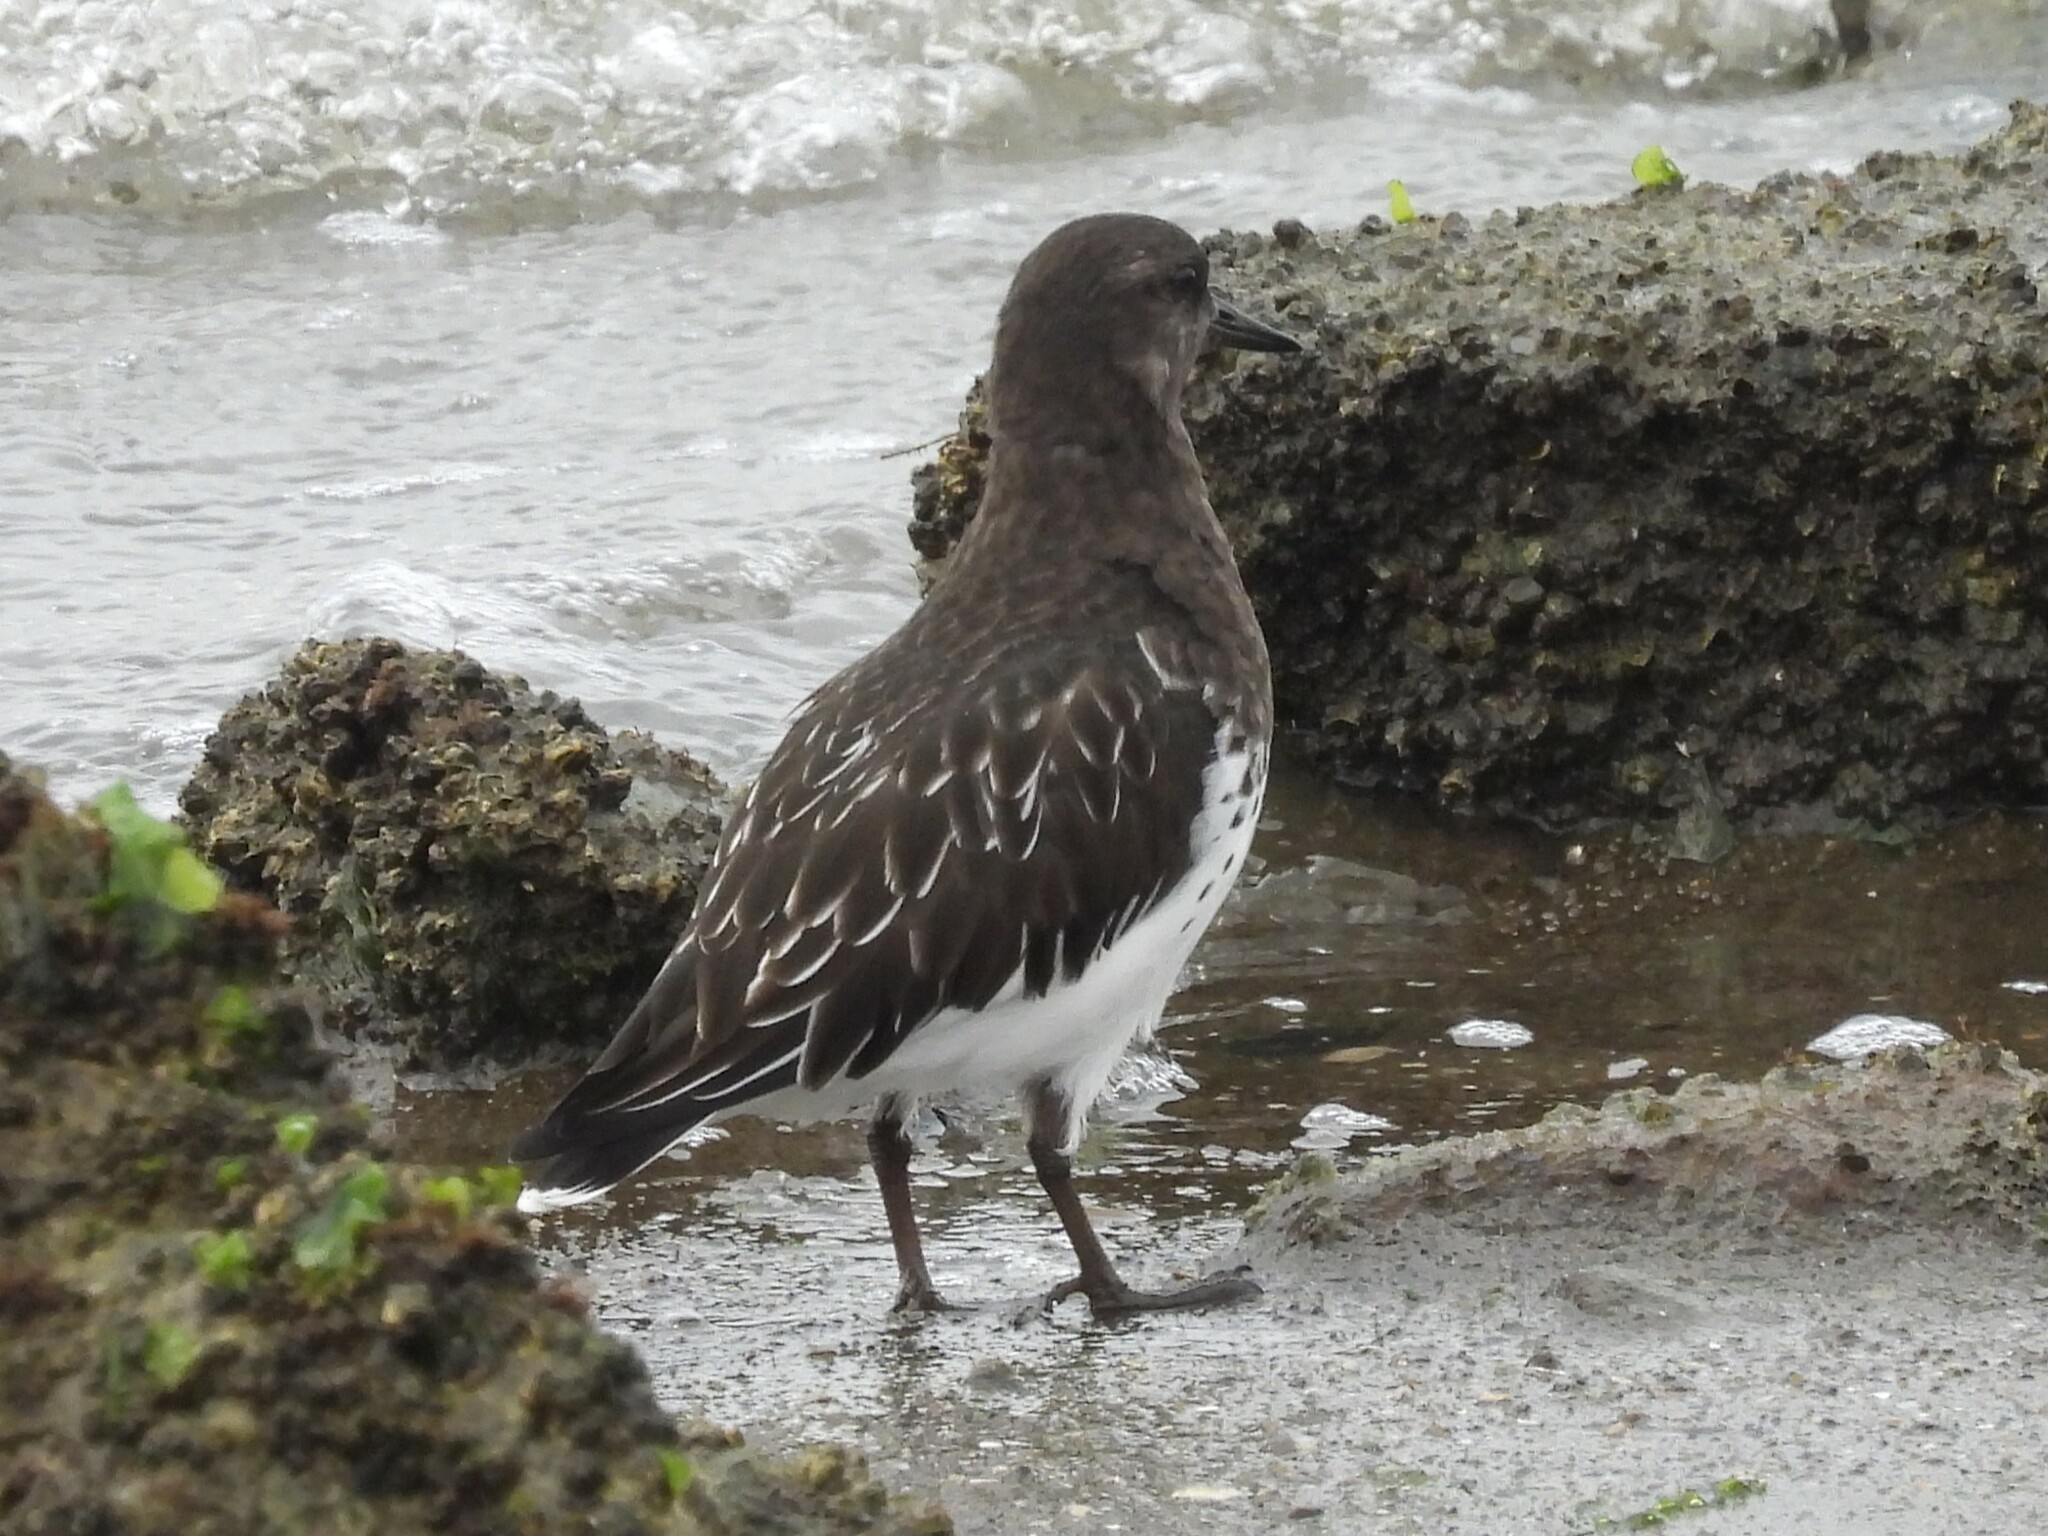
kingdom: Animalia
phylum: Chordata
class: Aves
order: Charadriiformes
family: Scolopacidae
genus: Arenaria
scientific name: Arenaria melanocephala
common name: Black turnstone
